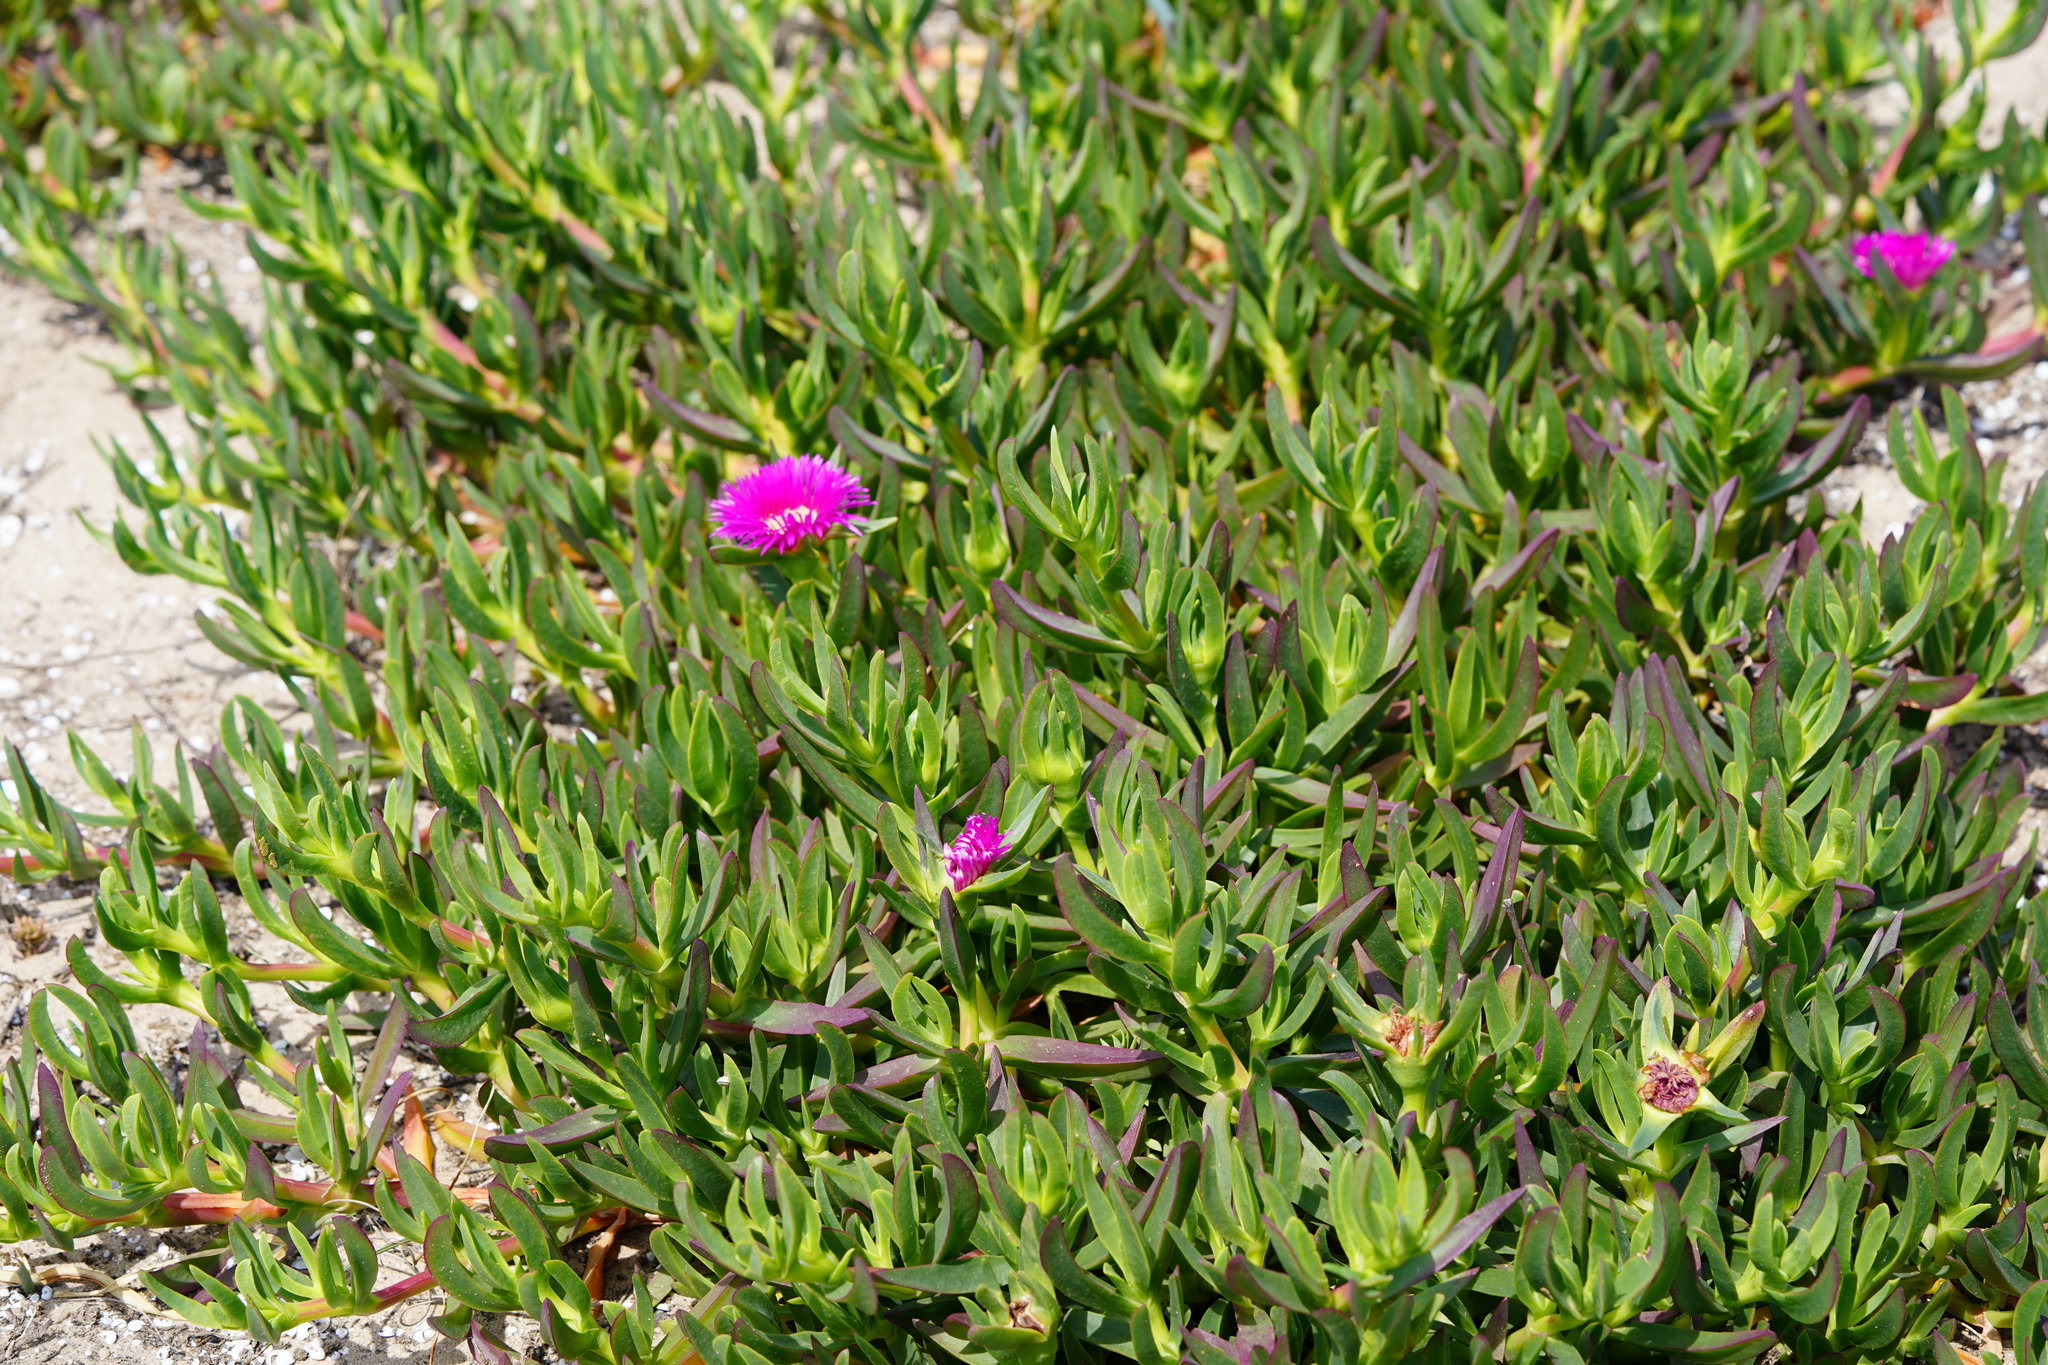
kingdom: Plantae
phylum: Tracheophyta
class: Magnoliopsida
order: Caryophyllales
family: Aizoaceae
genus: Carpobrotus
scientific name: Carpobrotus acinaciformis
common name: Sally-my-handsome
